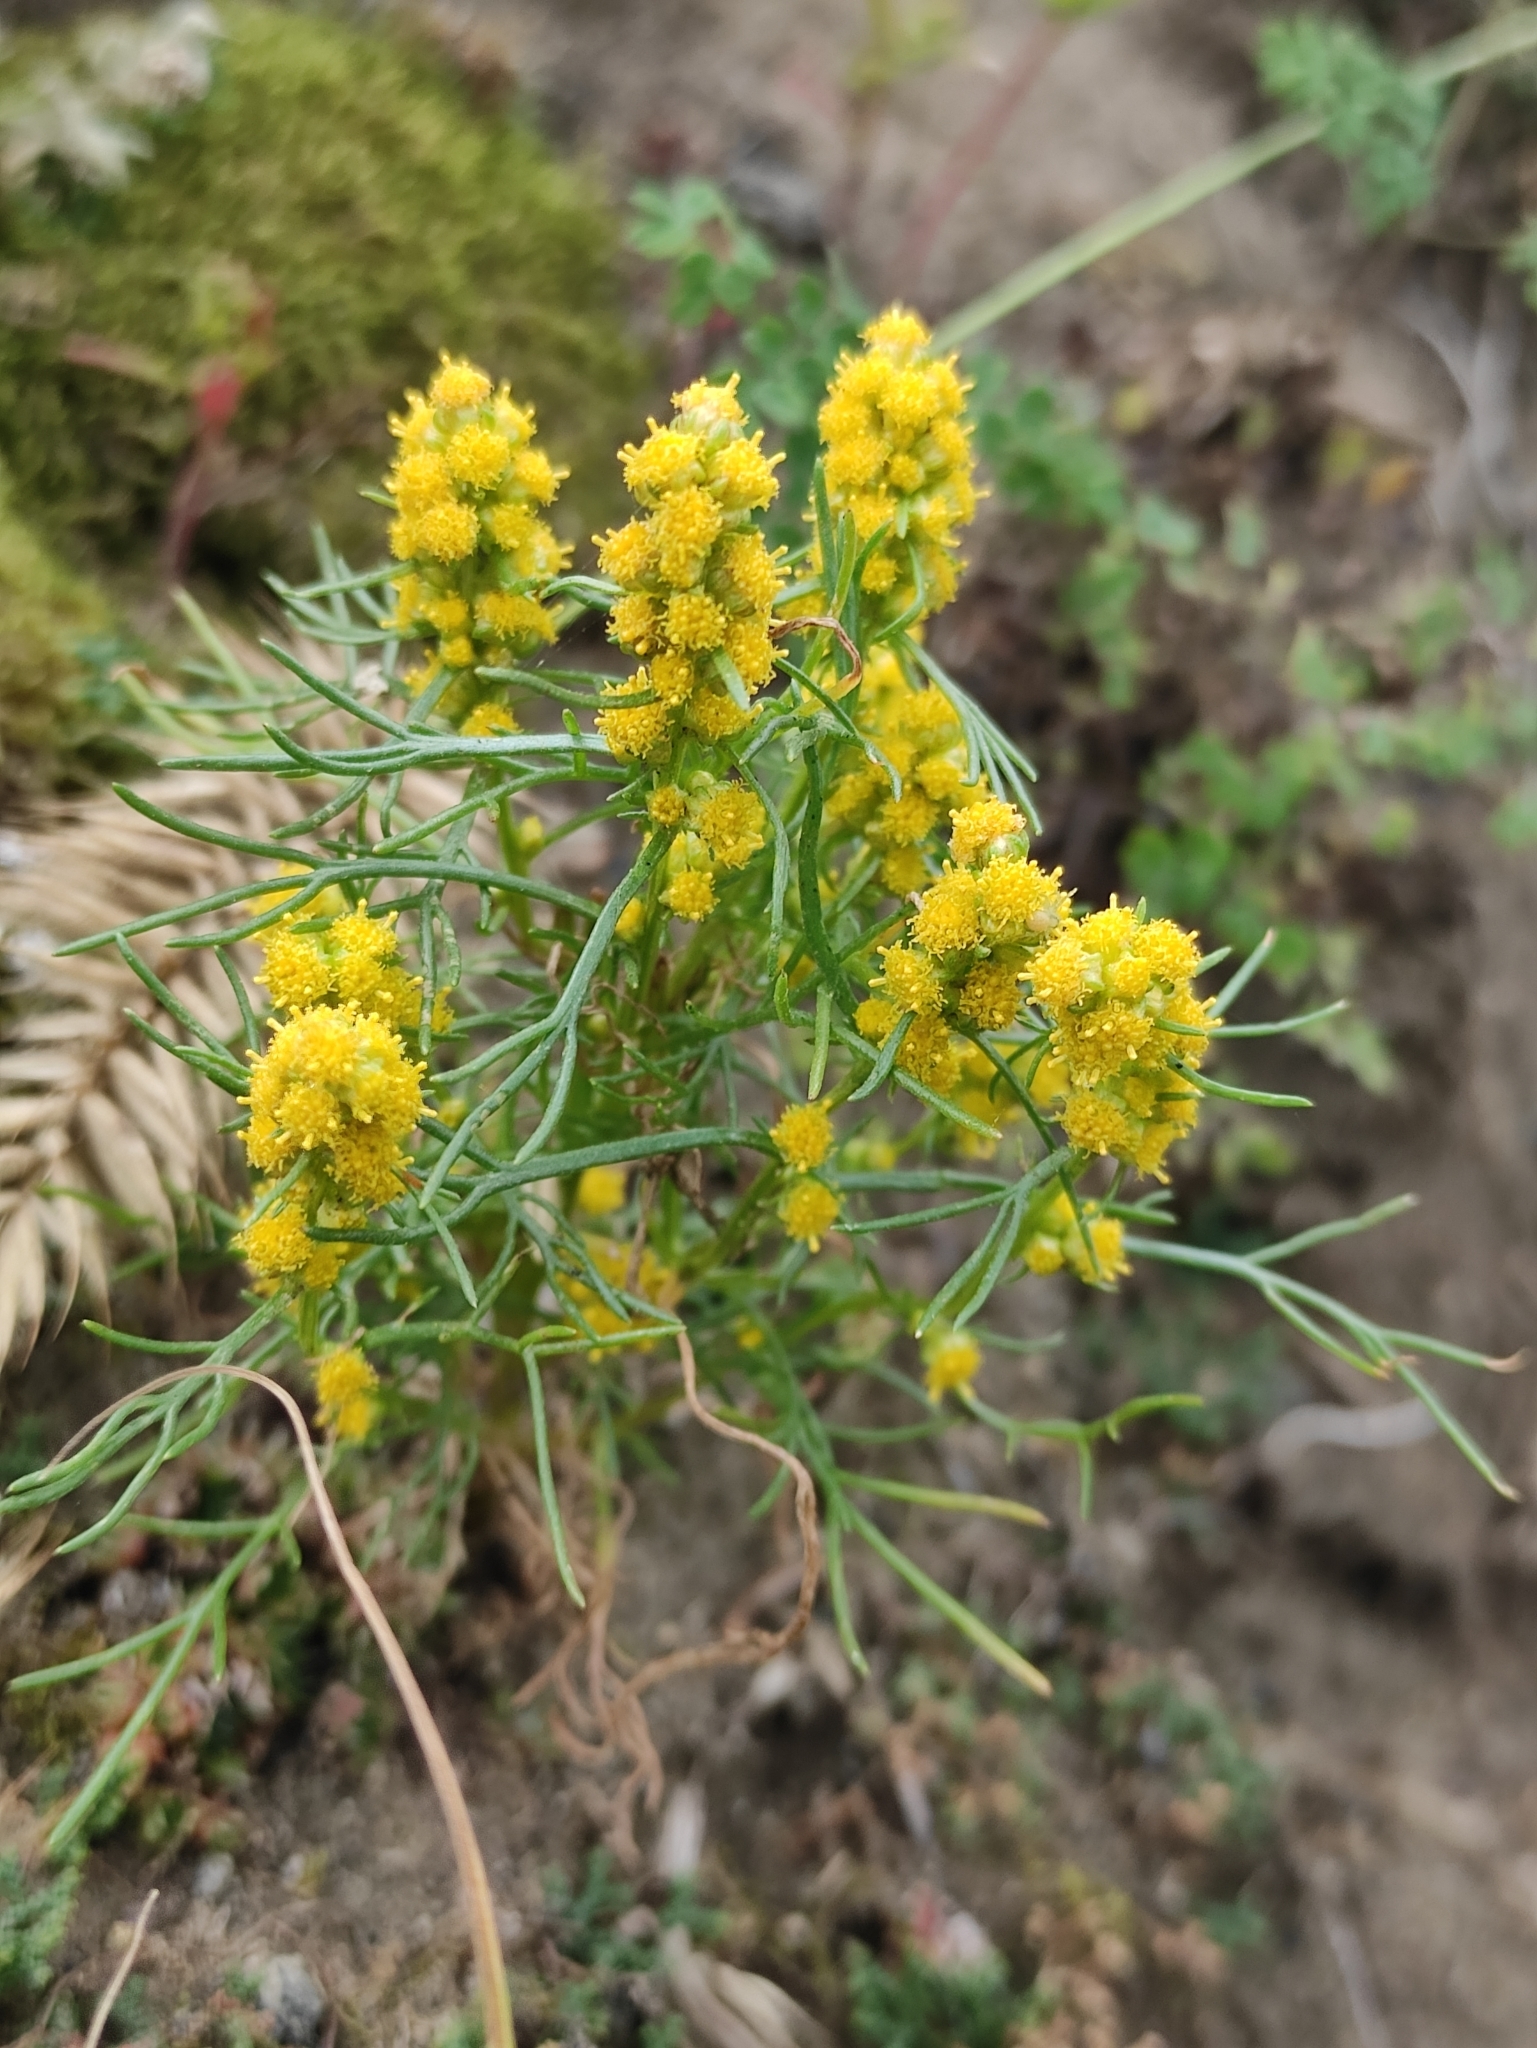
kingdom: Plantae
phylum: Tracheophyta
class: Magnoliopsida
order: Asterales
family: Asteraceae
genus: Artemisia
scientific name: Artemisia palustris
